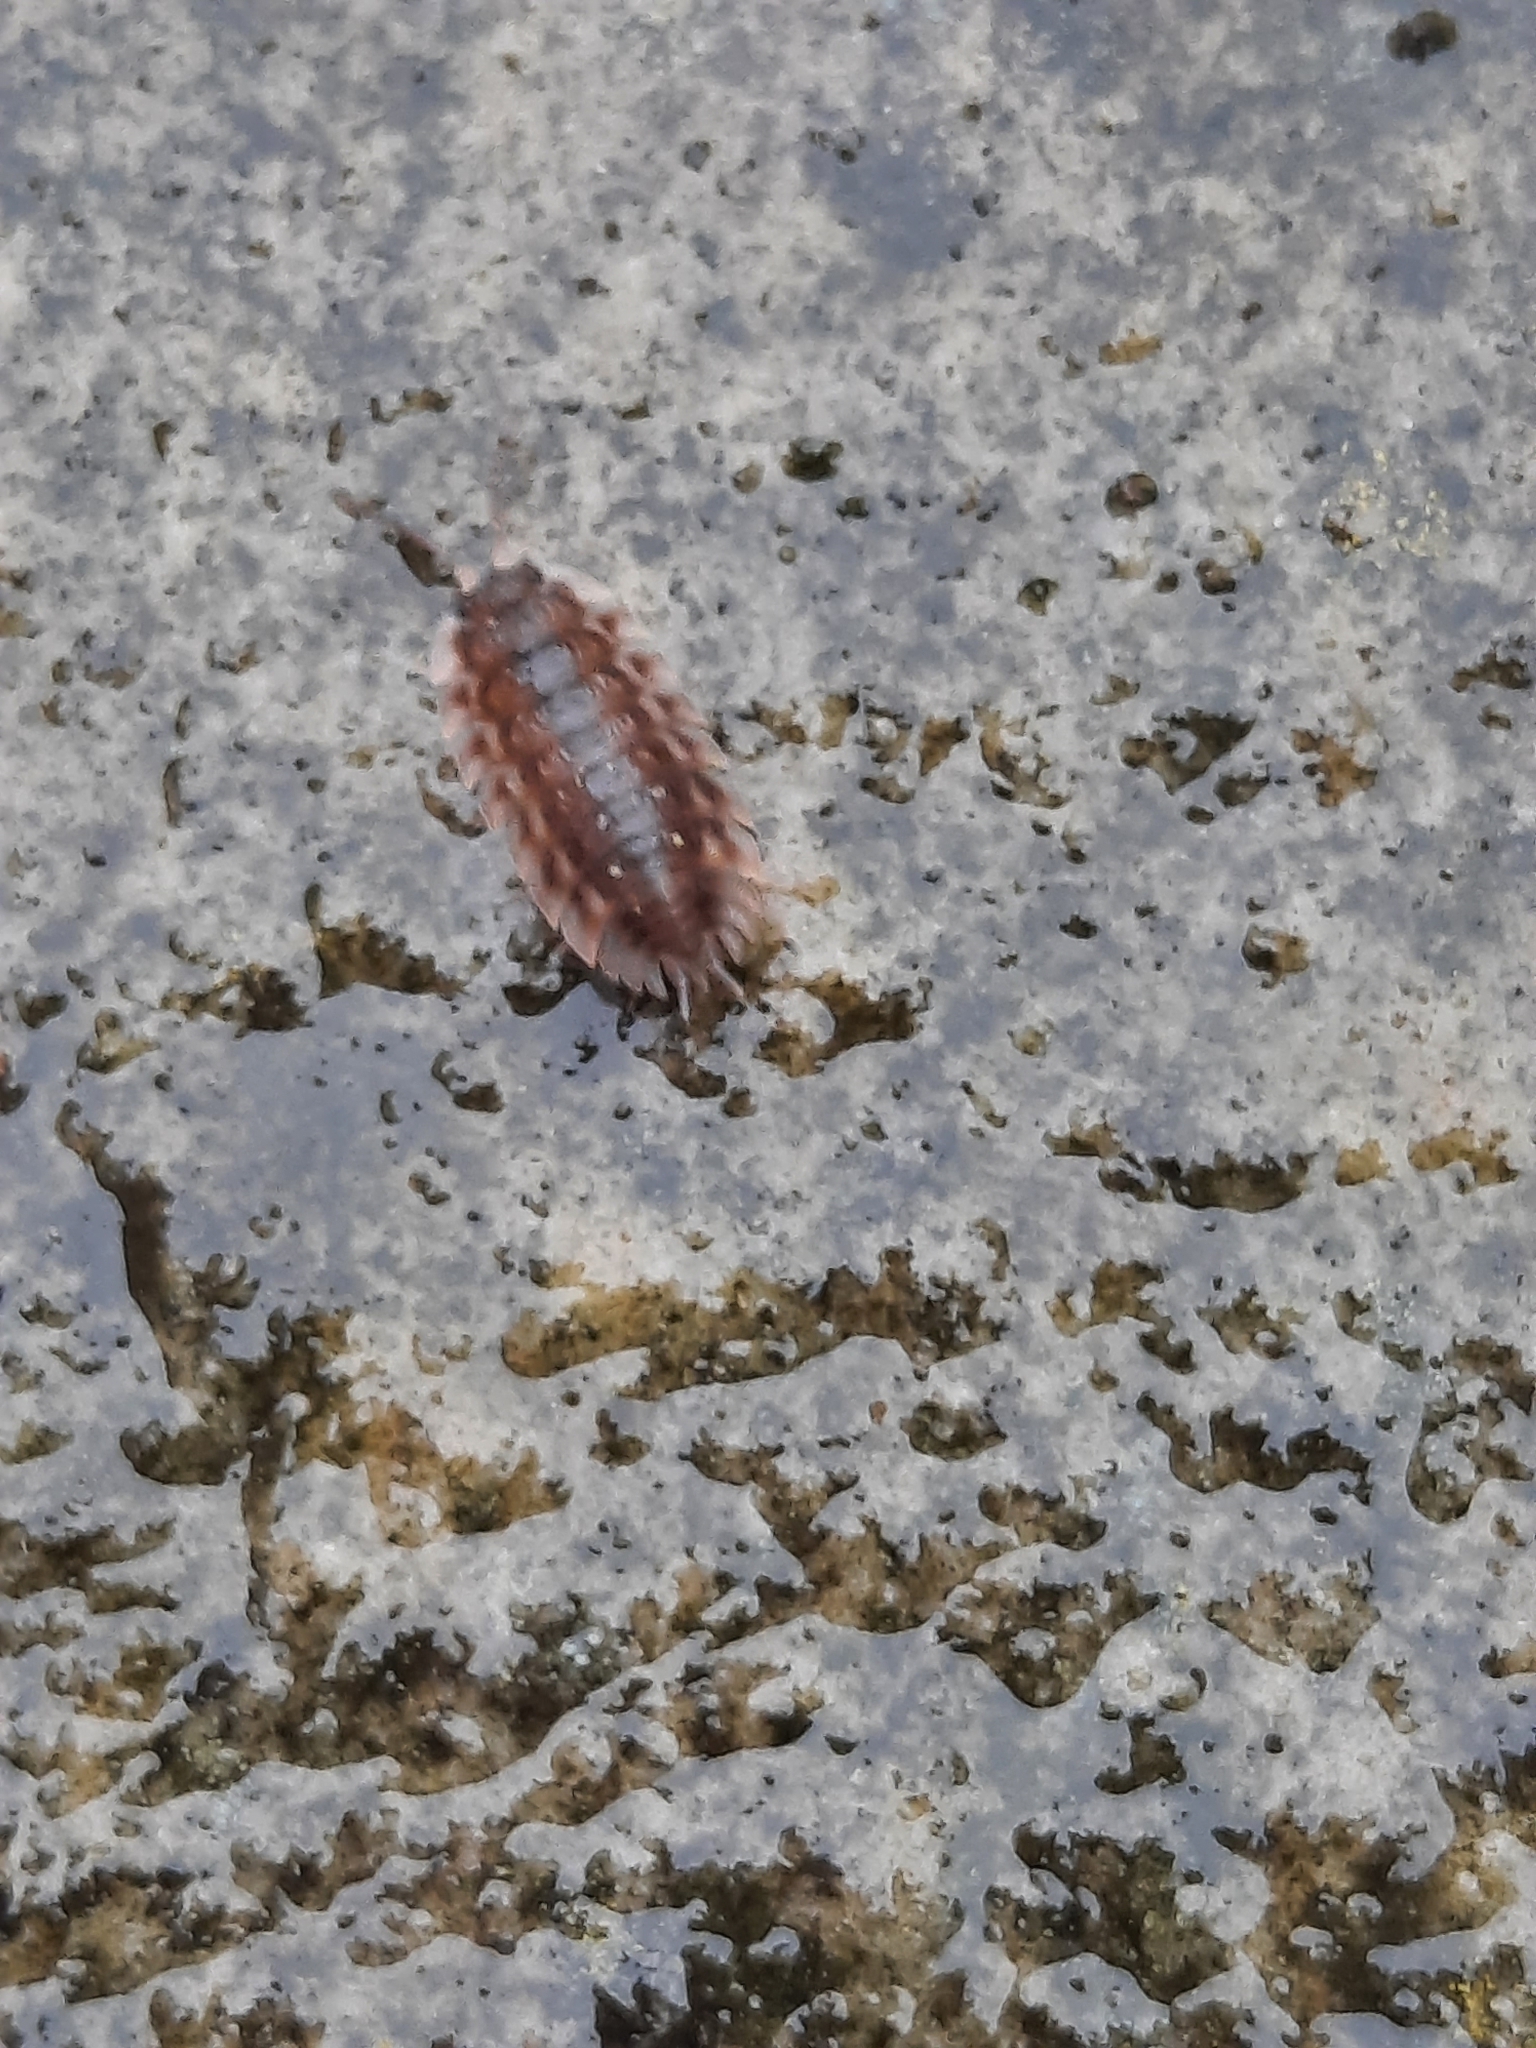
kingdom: Animalia
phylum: Arthropoda
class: Malacostraca
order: Isopoda
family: Oniscidae
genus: Oniscus
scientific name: Oniscus asellus
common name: Common shiny woodlouse
